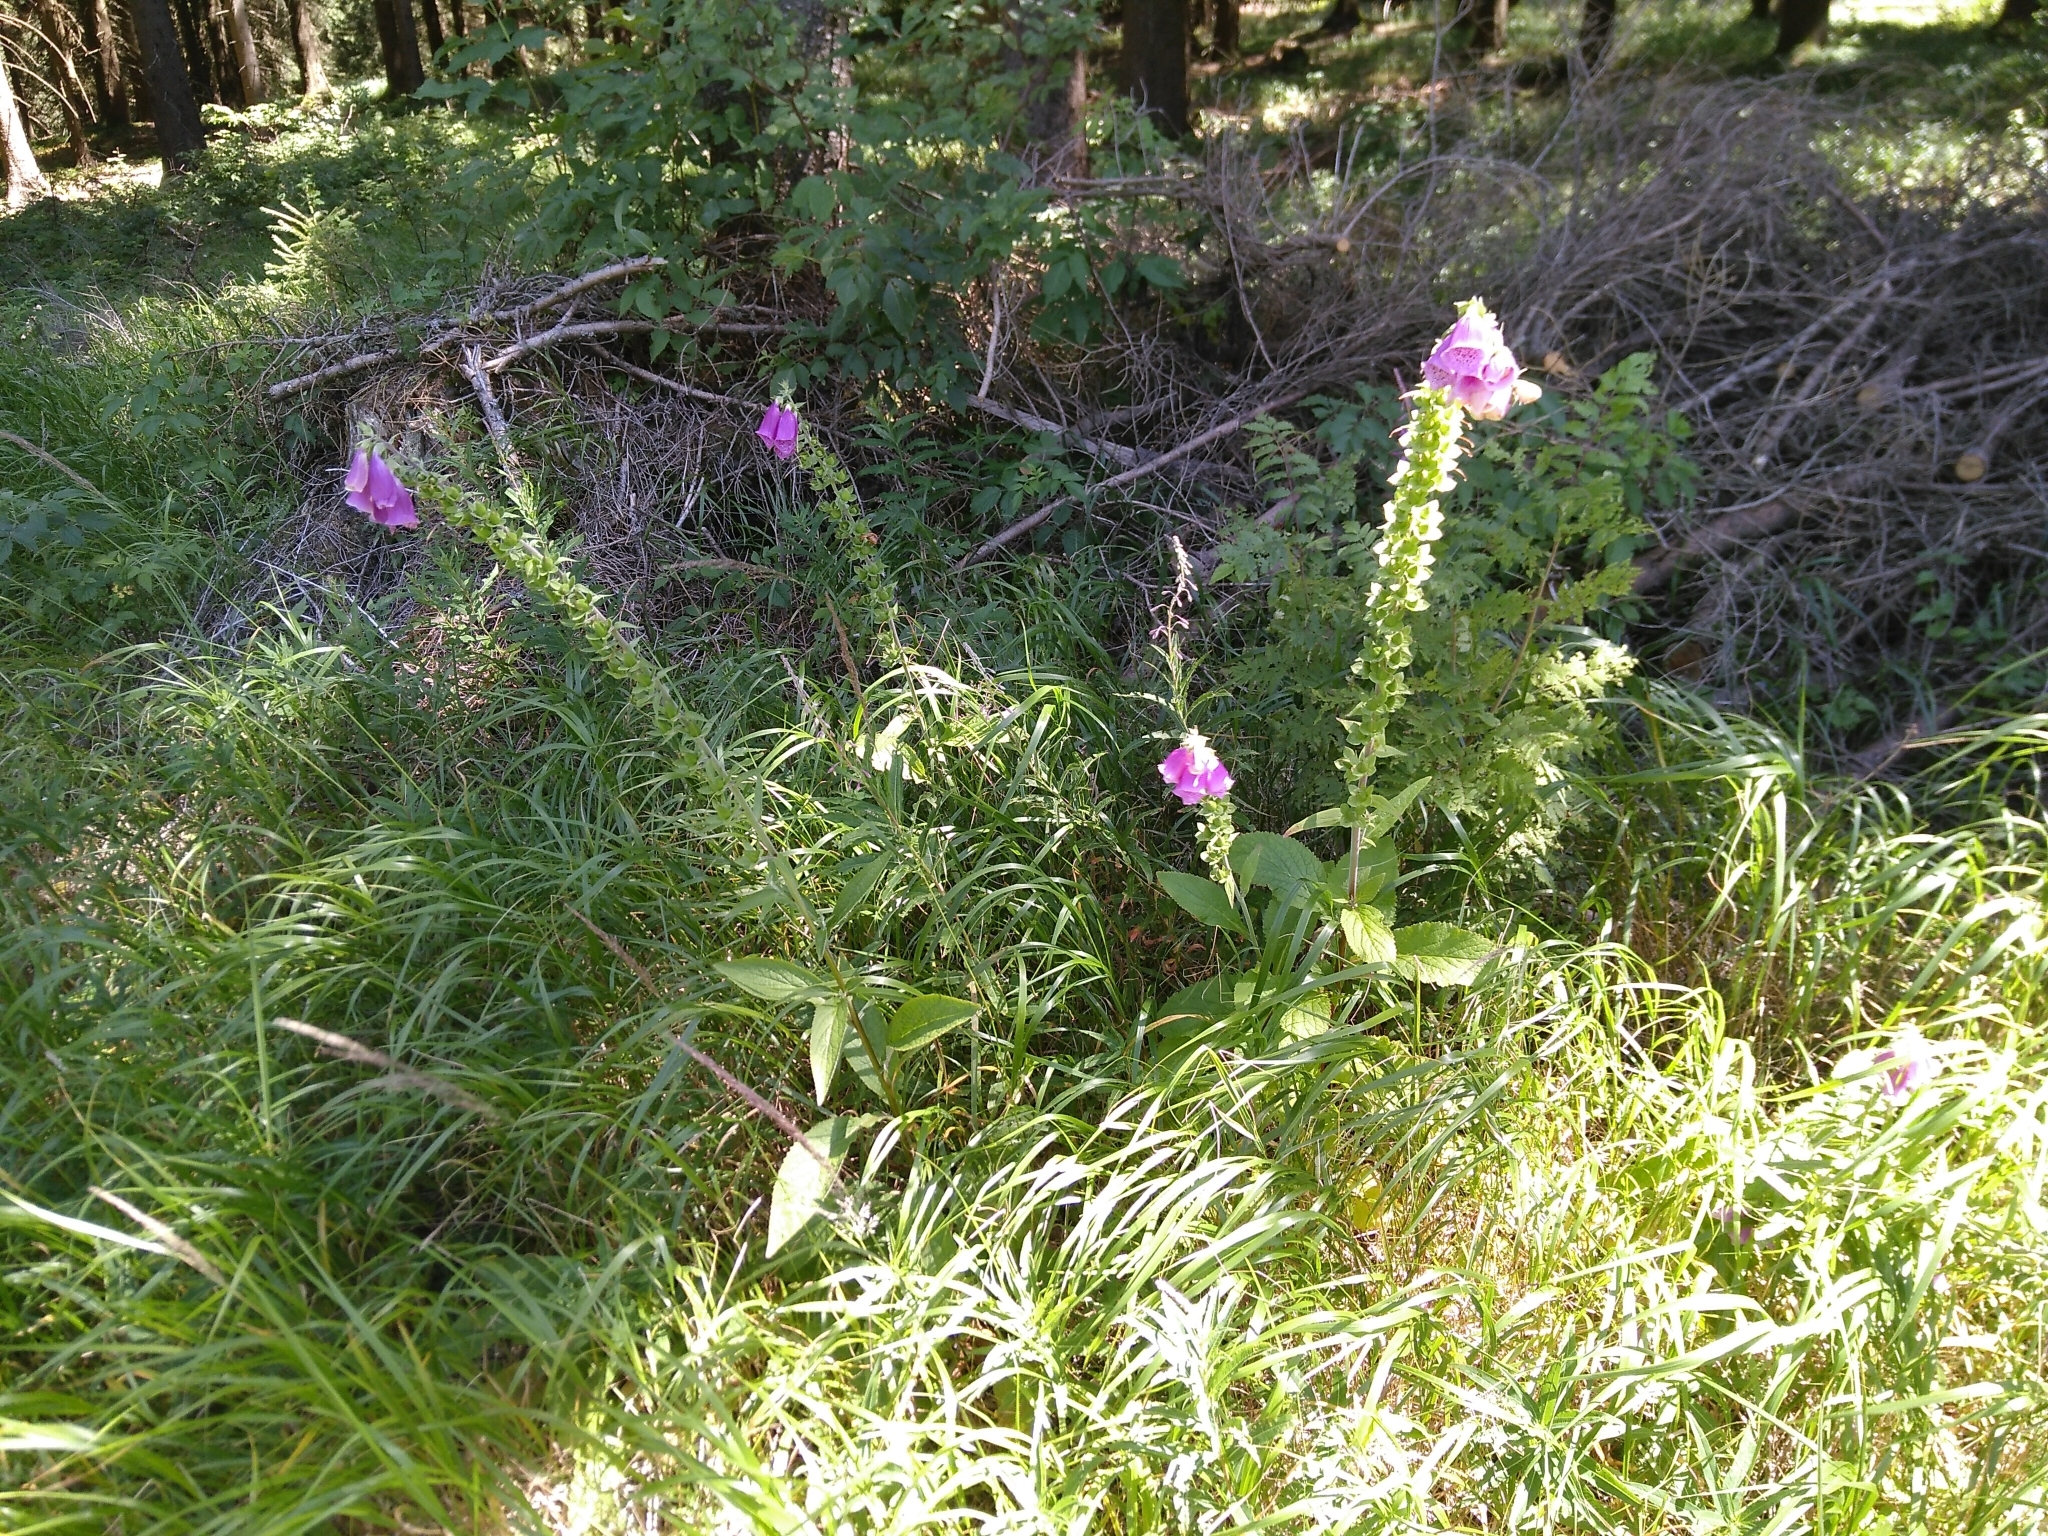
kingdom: Plantae
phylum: Tracheophyta
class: Magnoliopsida
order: Lamiales
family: Plantaginaceae
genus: Digitalis
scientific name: Digitalis purpurea
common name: Foxglove
